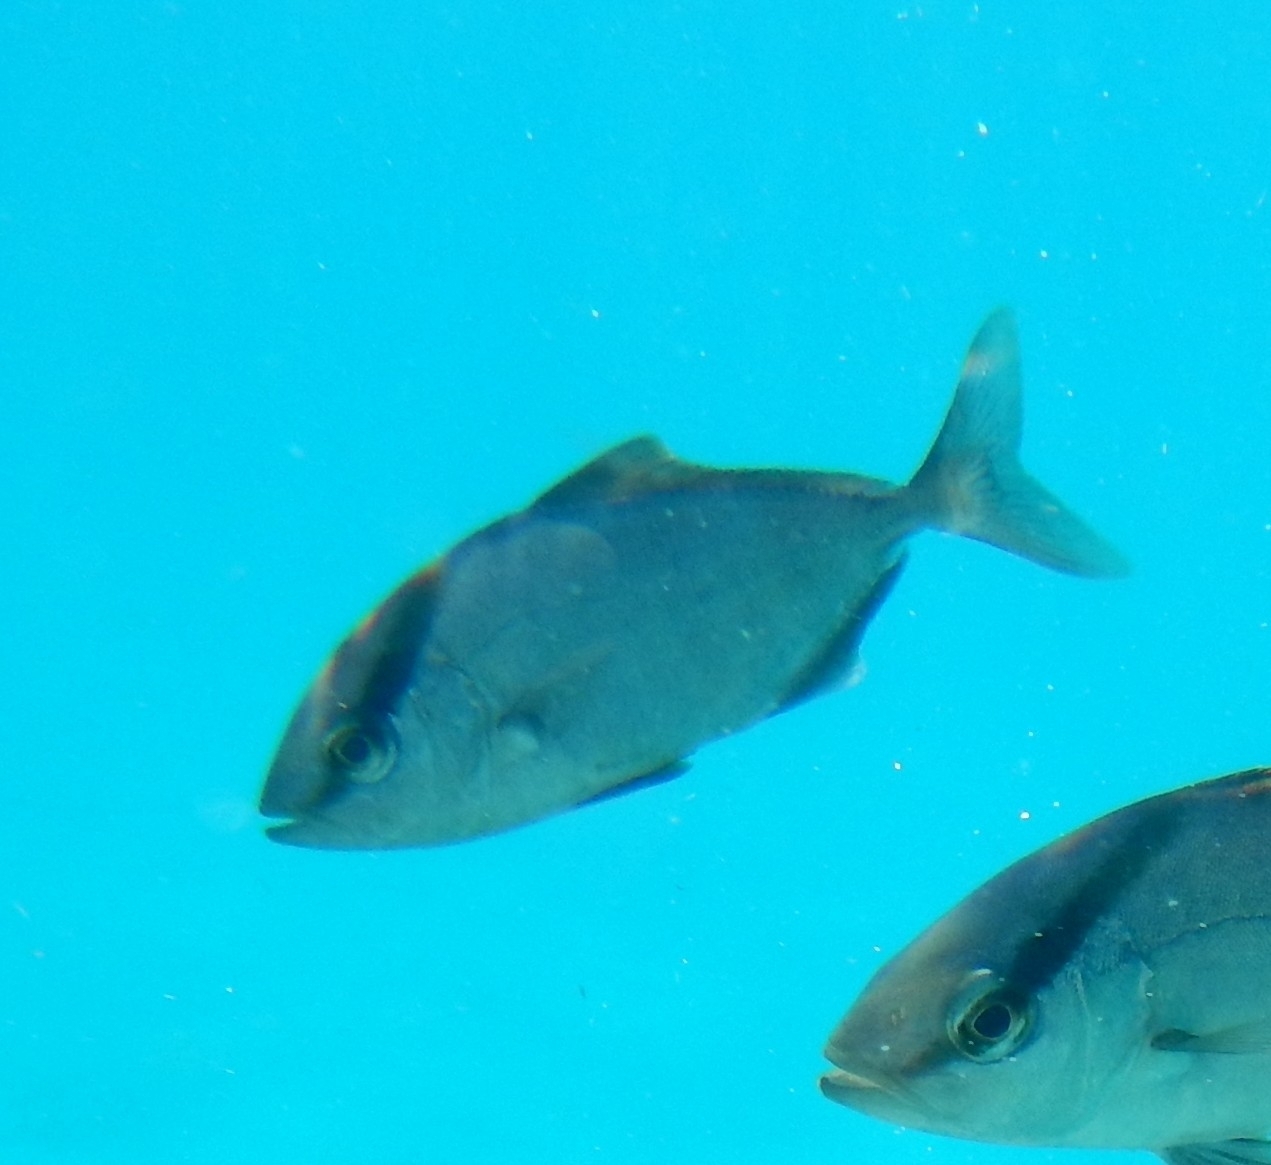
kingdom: Animalia
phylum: Chordata
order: Perciformes
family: Carangidae
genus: Seriola
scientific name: Seriola rivoliana
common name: Almaco jack
